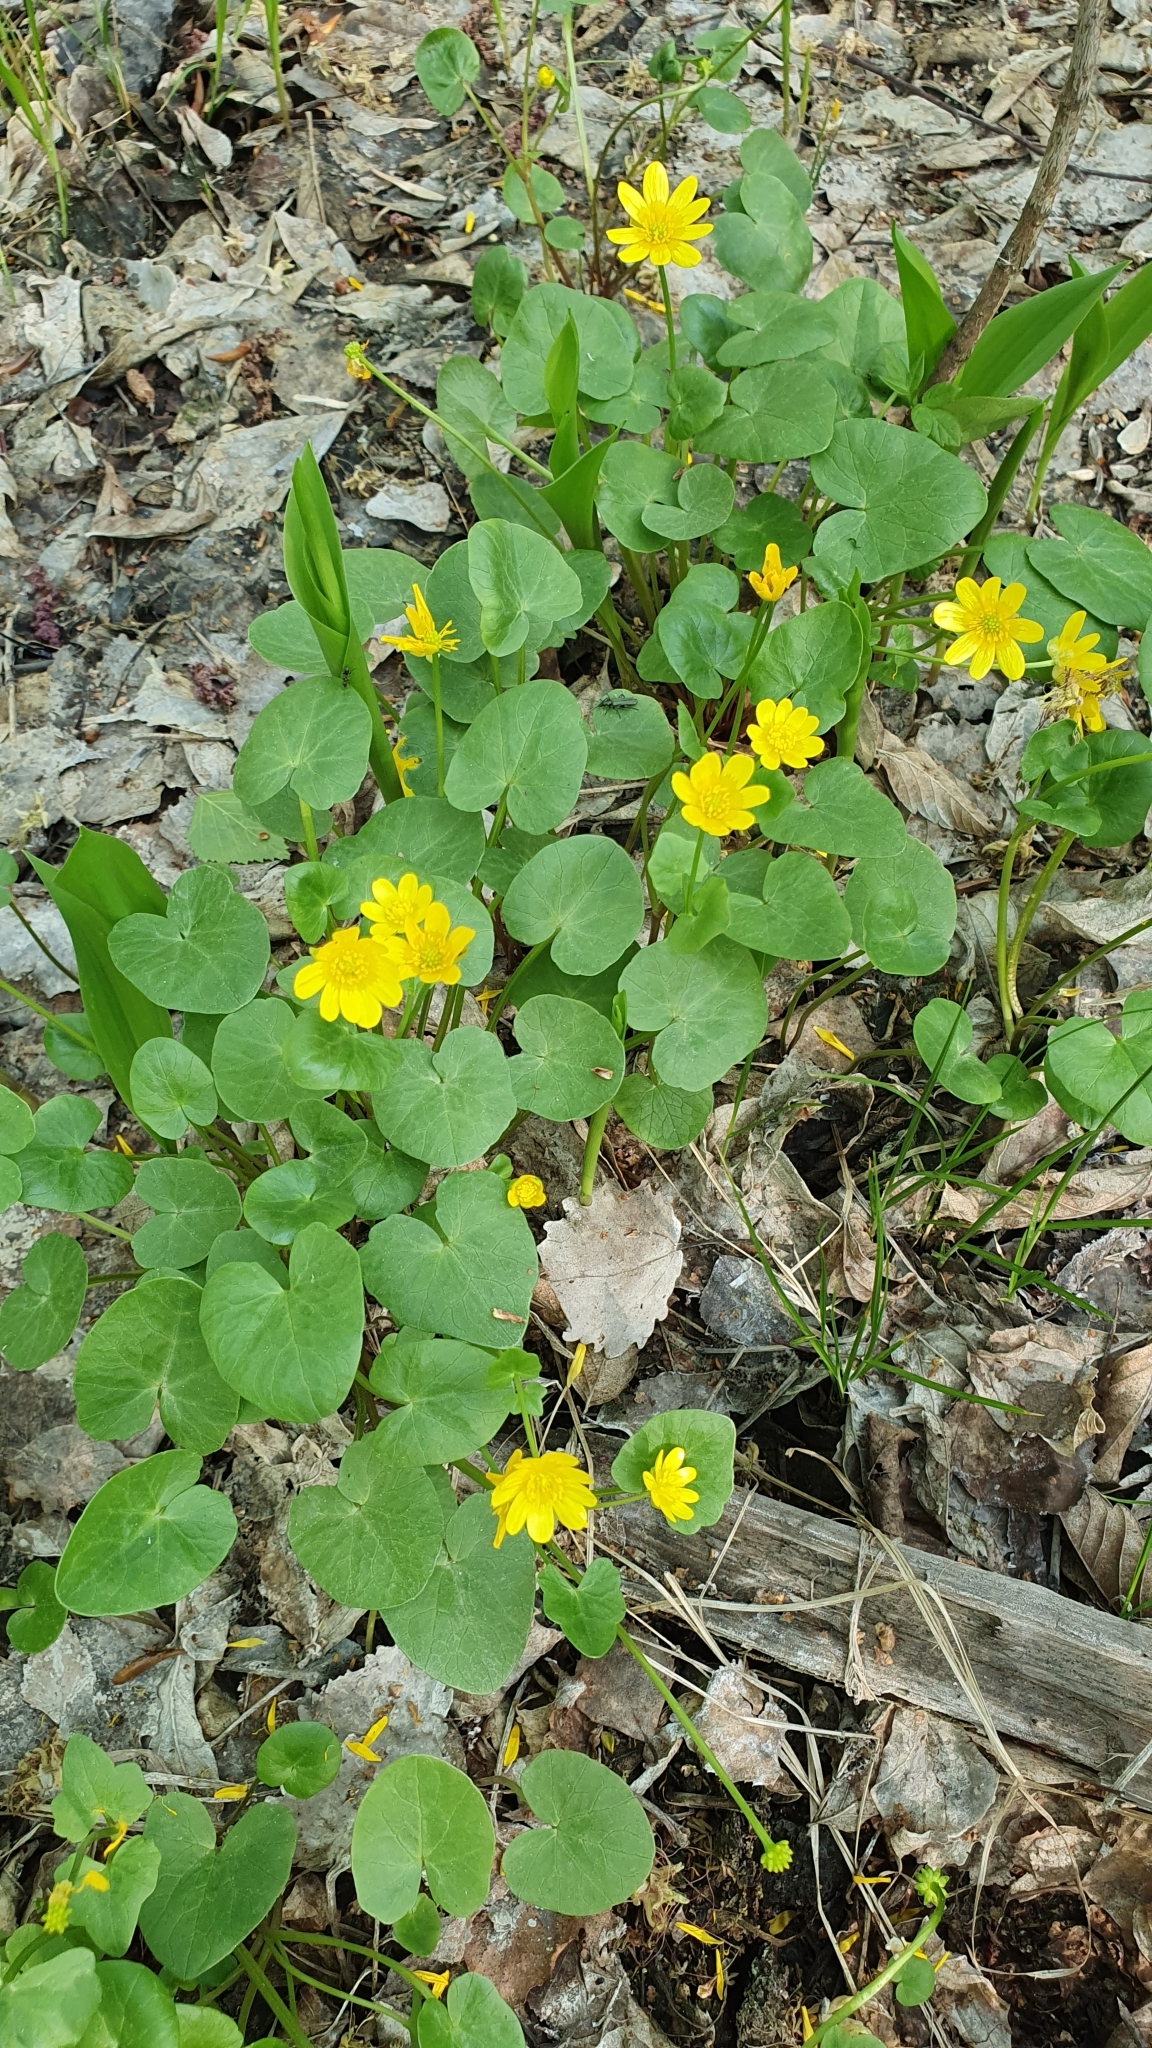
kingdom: Plantae
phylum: Tracheophyta
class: Magnoliopsida
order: Ranunculales
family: Ranunculaceae
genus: Ficaria
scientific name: Ficaria verna
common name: Lesser celandine
